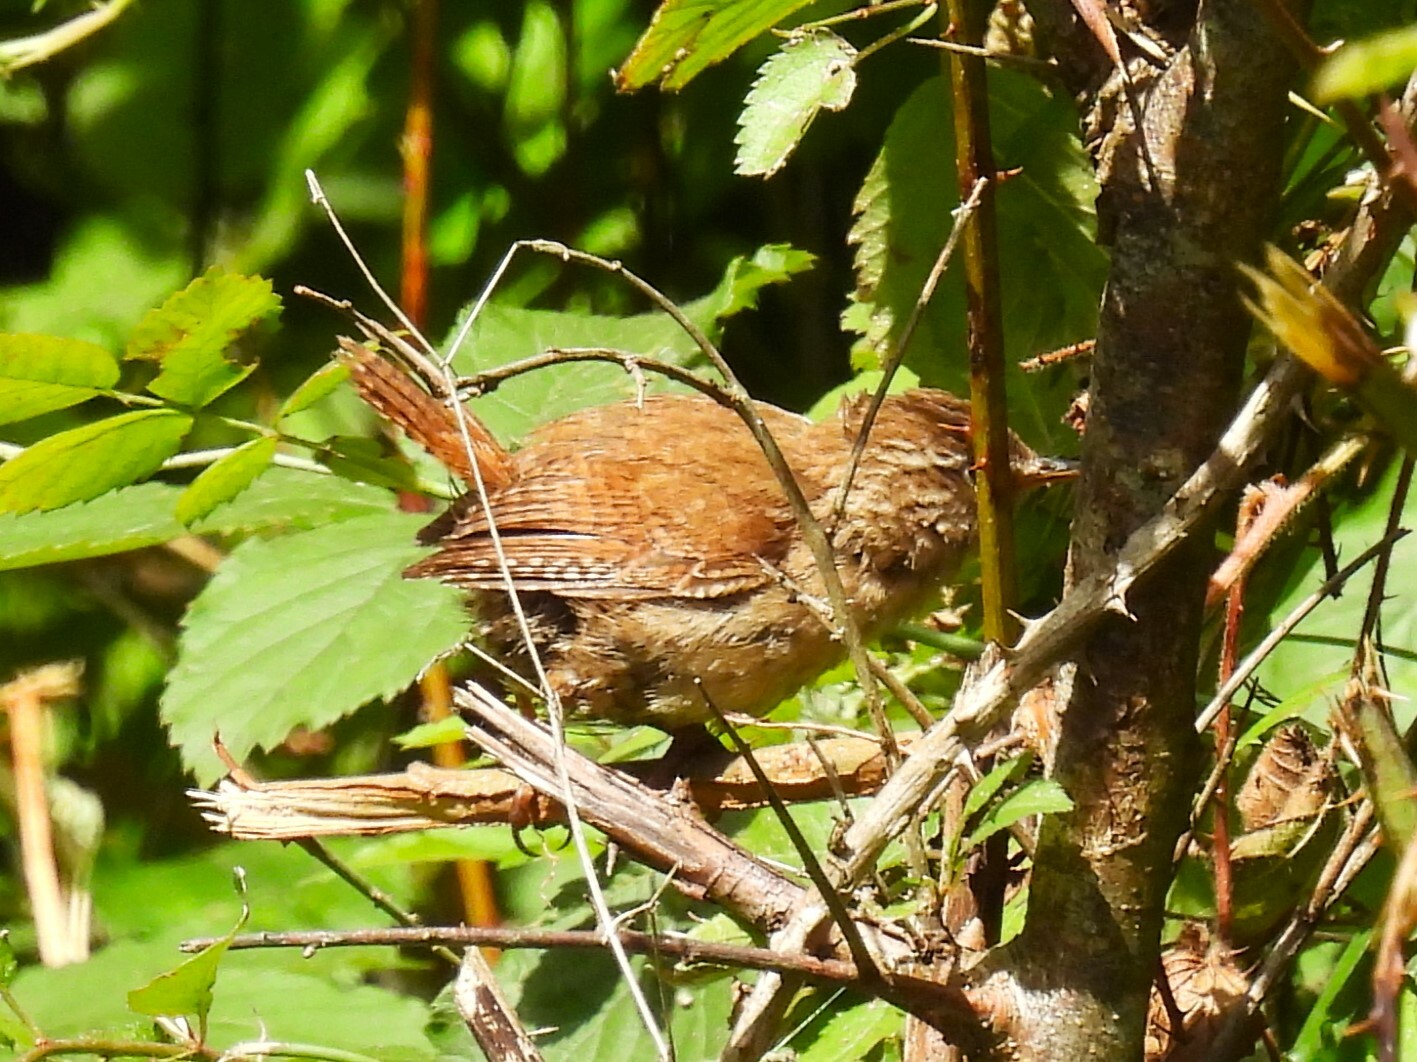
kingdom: Animalia
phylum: Chordata
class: Aves
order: Passeriformes
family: Troglodytidae
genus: Troglodytes
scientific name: Troglodytes troglodytes
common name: Eurasian wren
